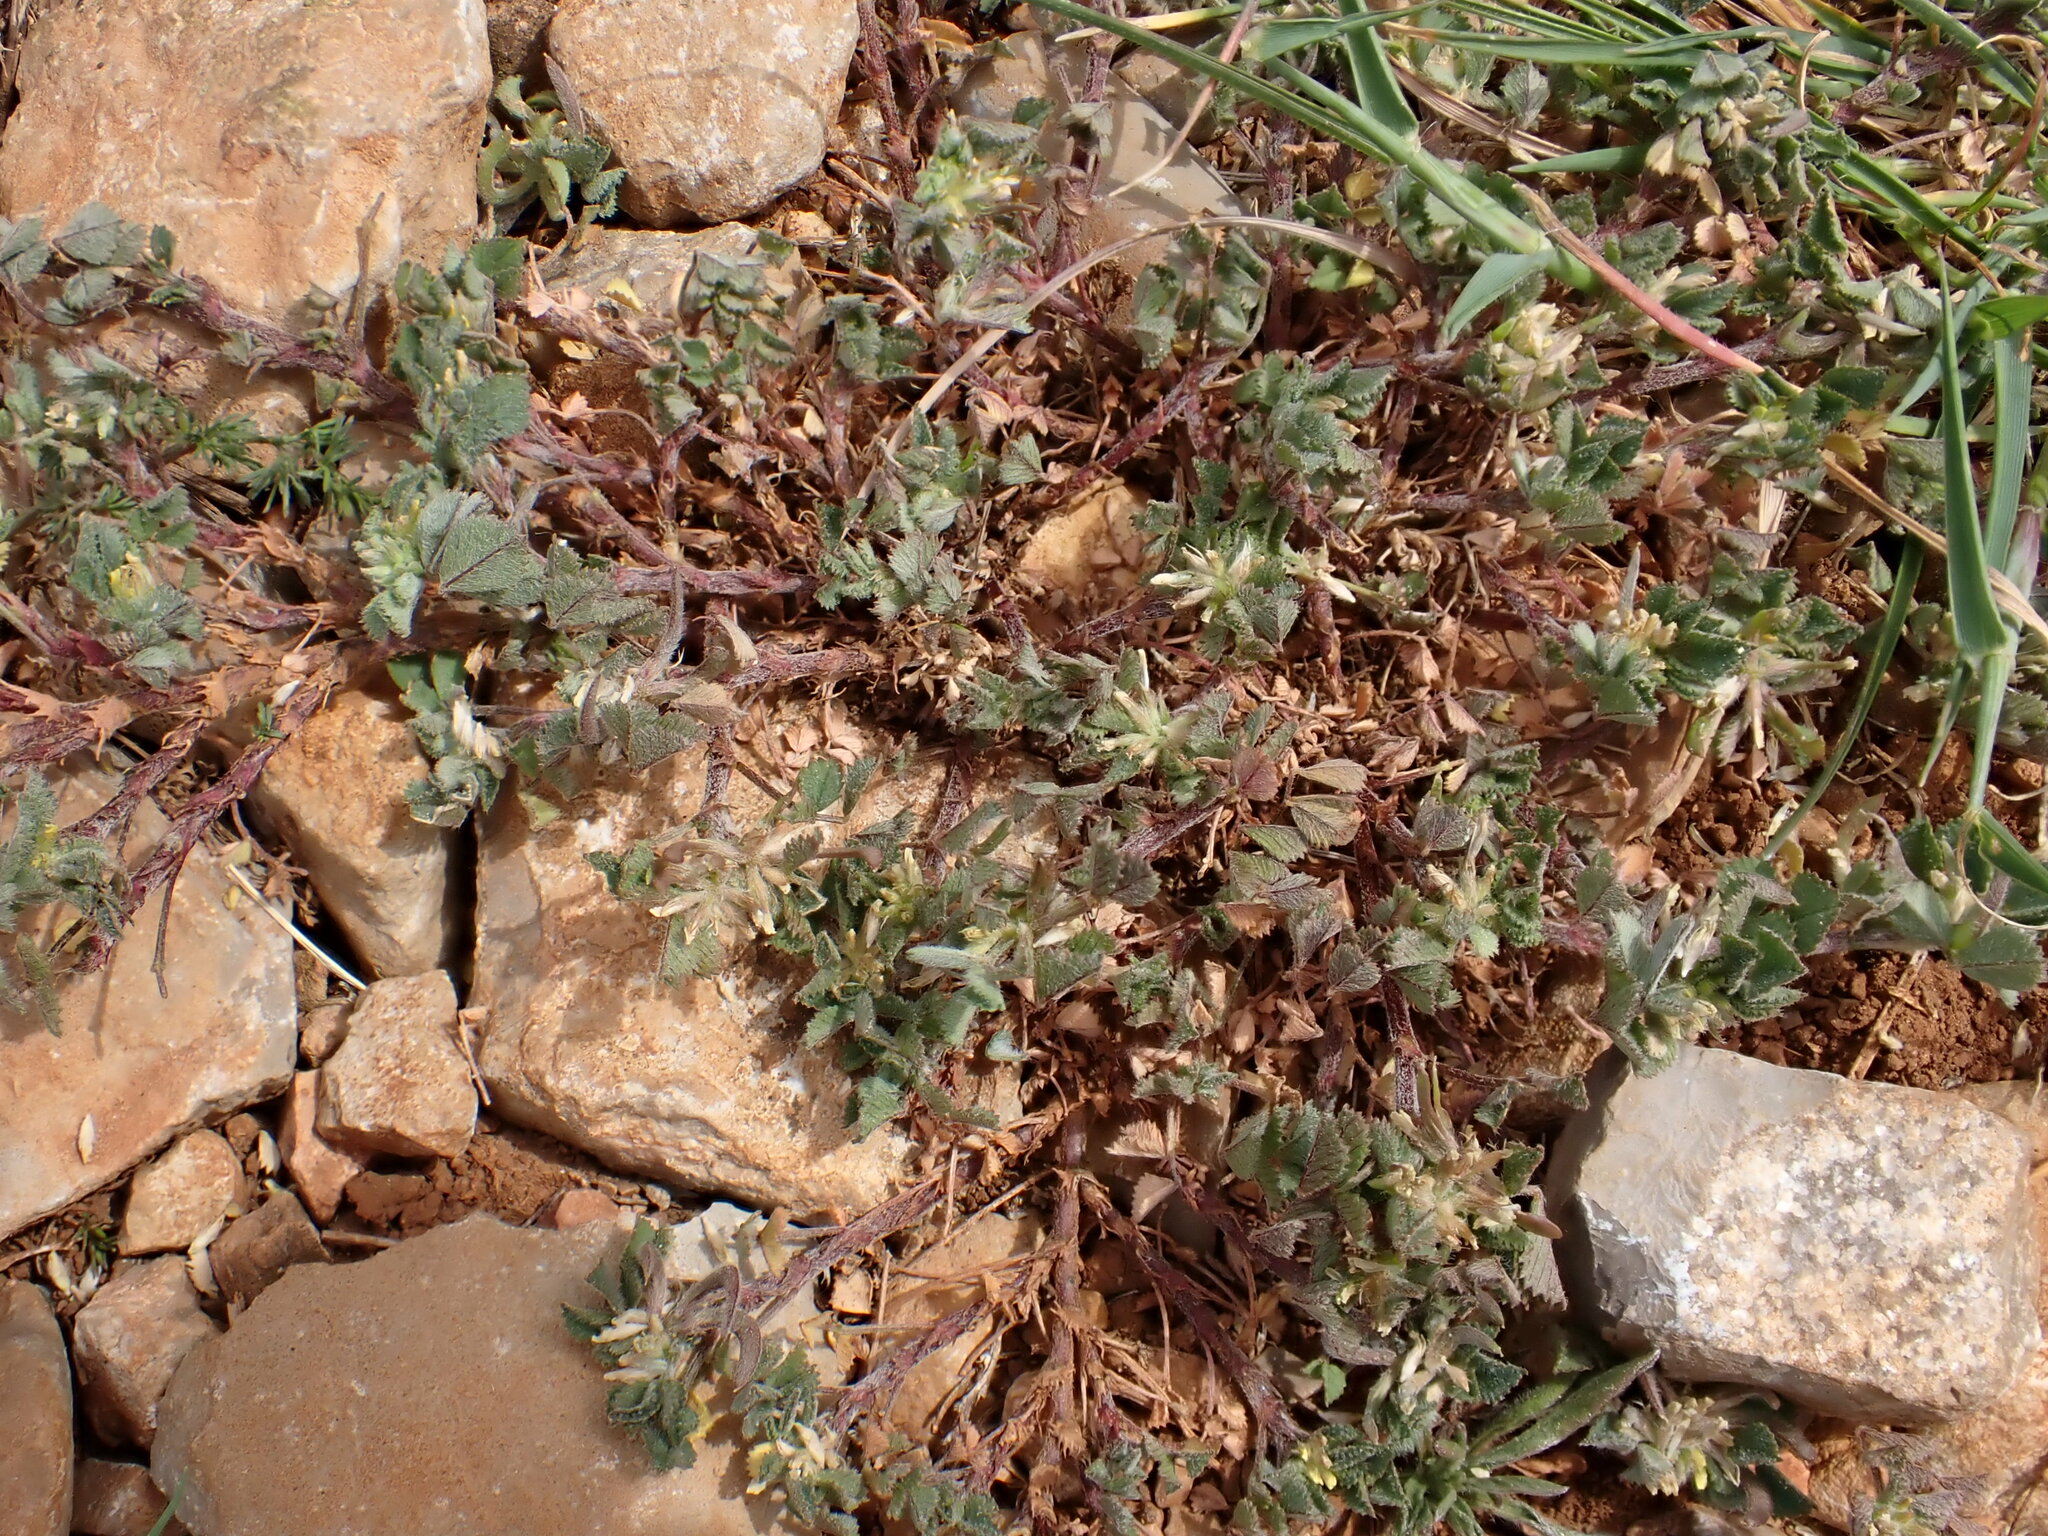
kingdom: Plantae
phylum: Tracheophyta
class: Magnoliopsida
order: Fabales
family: Fabaceae
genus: Medicago
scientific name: Medicago monspeliaca
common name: Hairy medick
